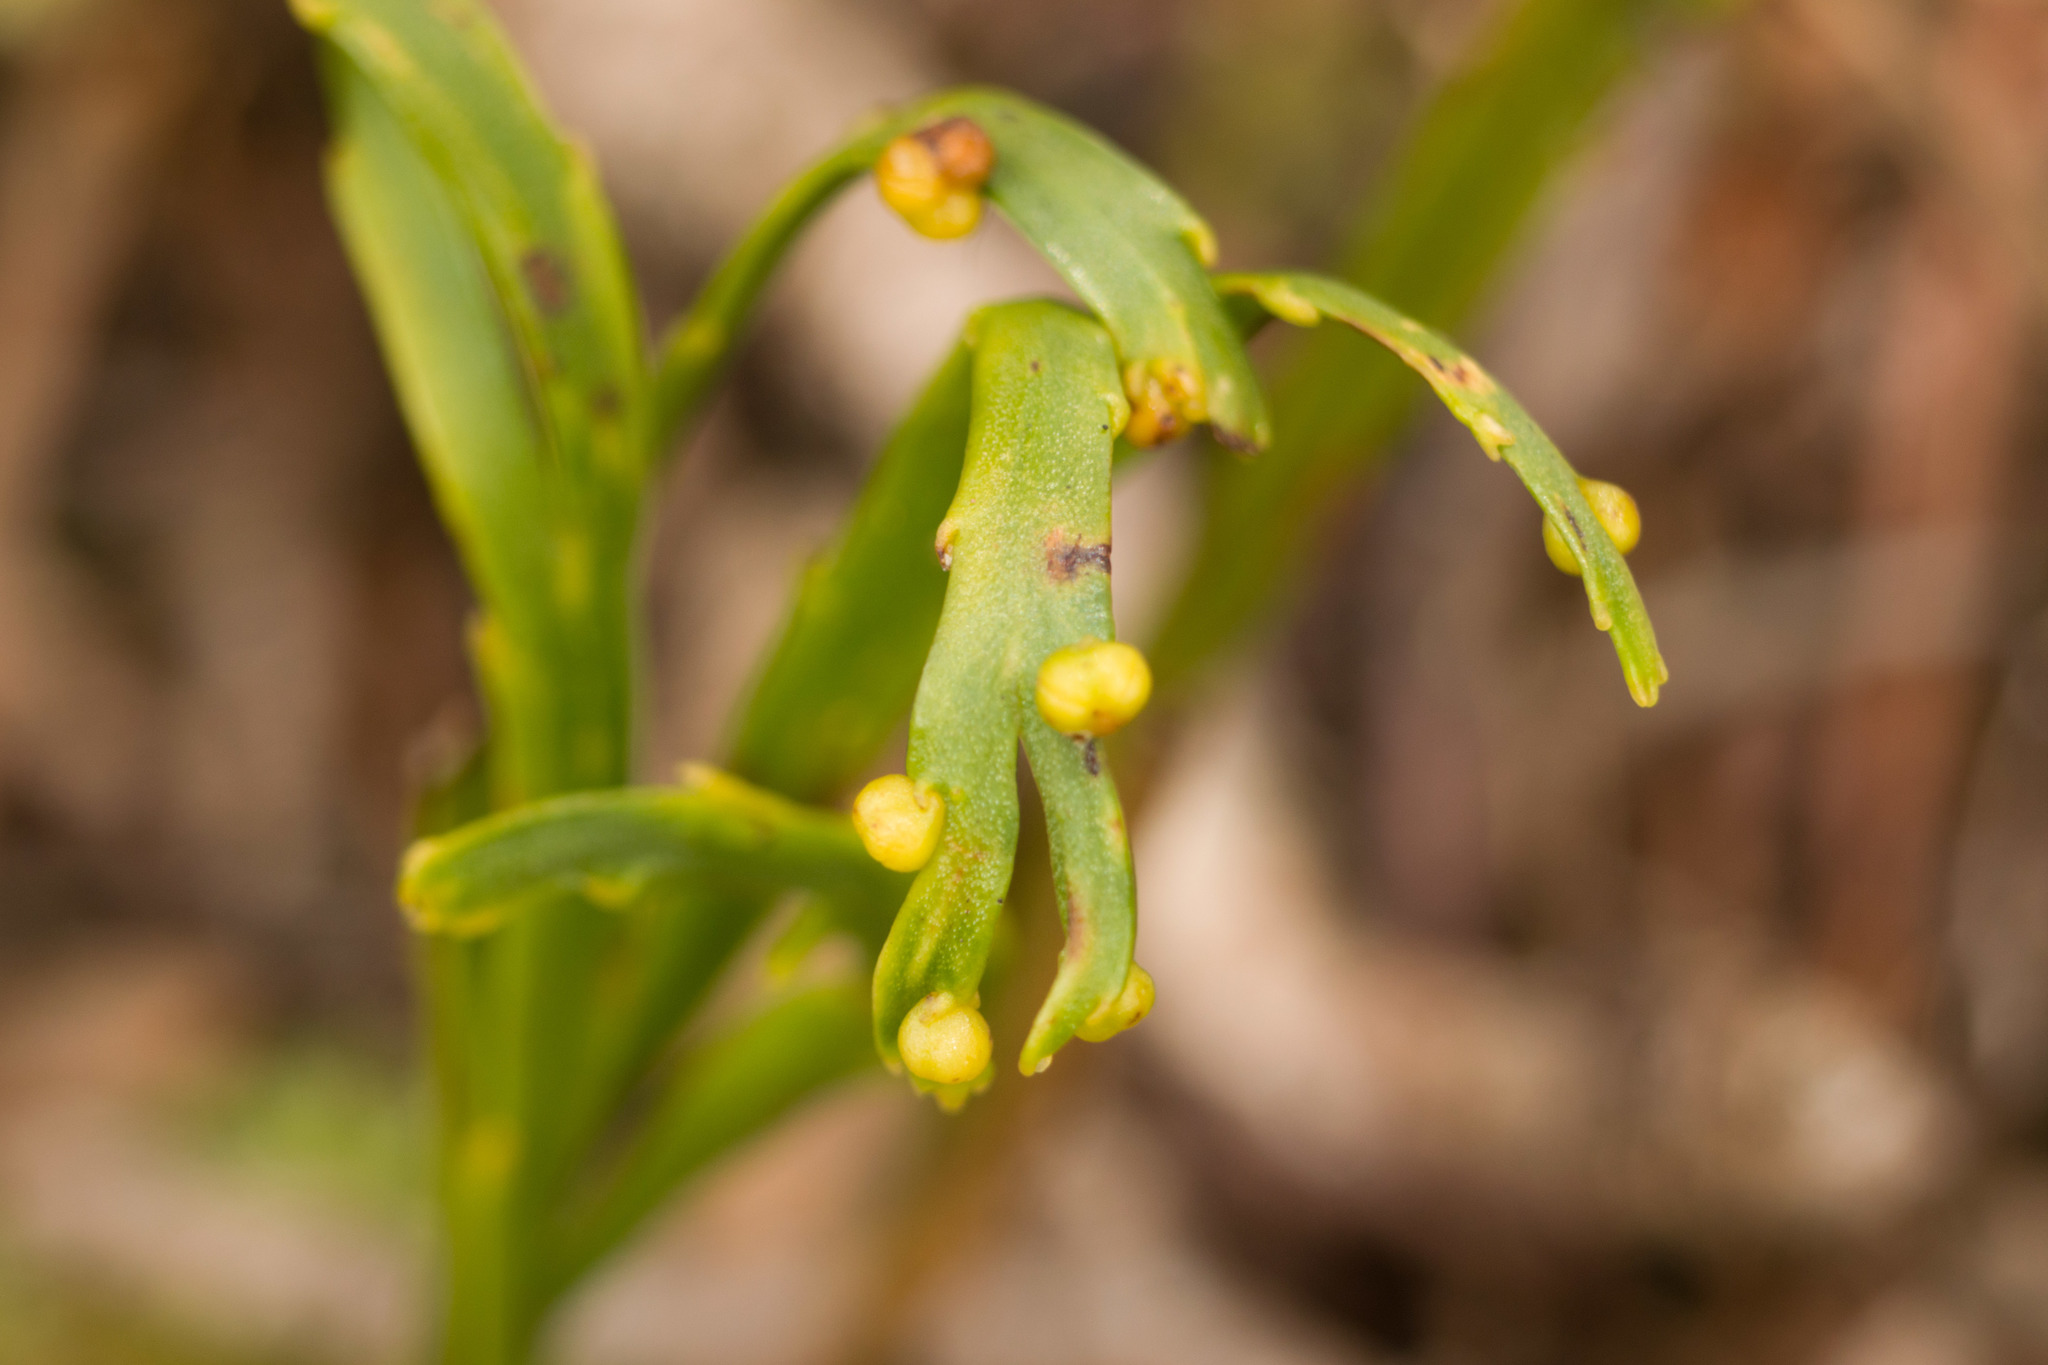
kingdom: Plantae
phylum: Tracheophyta
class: Polypodiopsida
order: Psilotales
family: Psilotaceae
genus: Psilotum
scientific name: Psilotum complanatum
